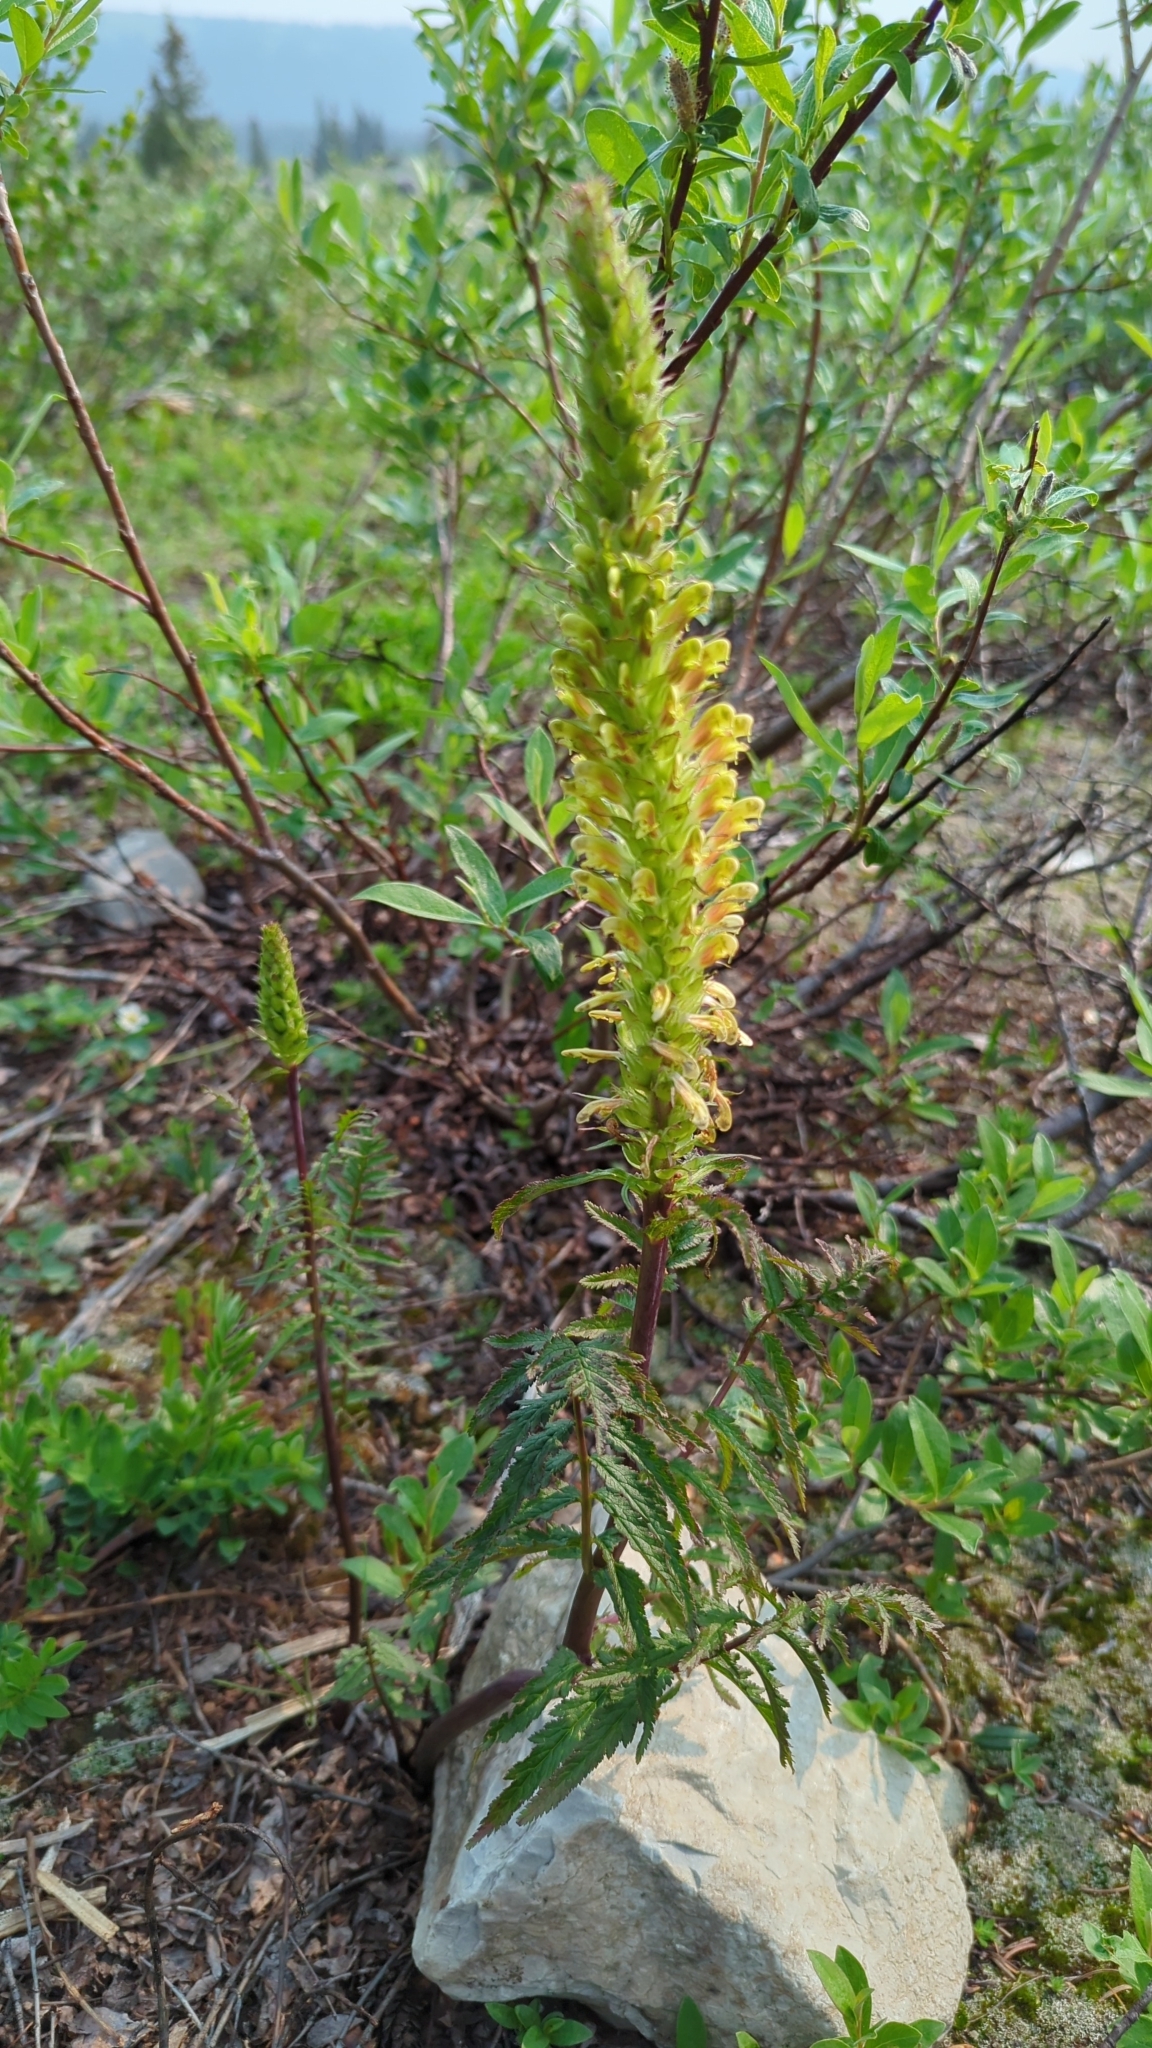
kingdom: Plantae
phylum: Tracheophyta
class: Magnoliopsida
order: Lamiales
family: Orobanchaceae
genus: Pedicularis
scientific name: Pedicularis bracteosa
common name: Bracted lousewort
